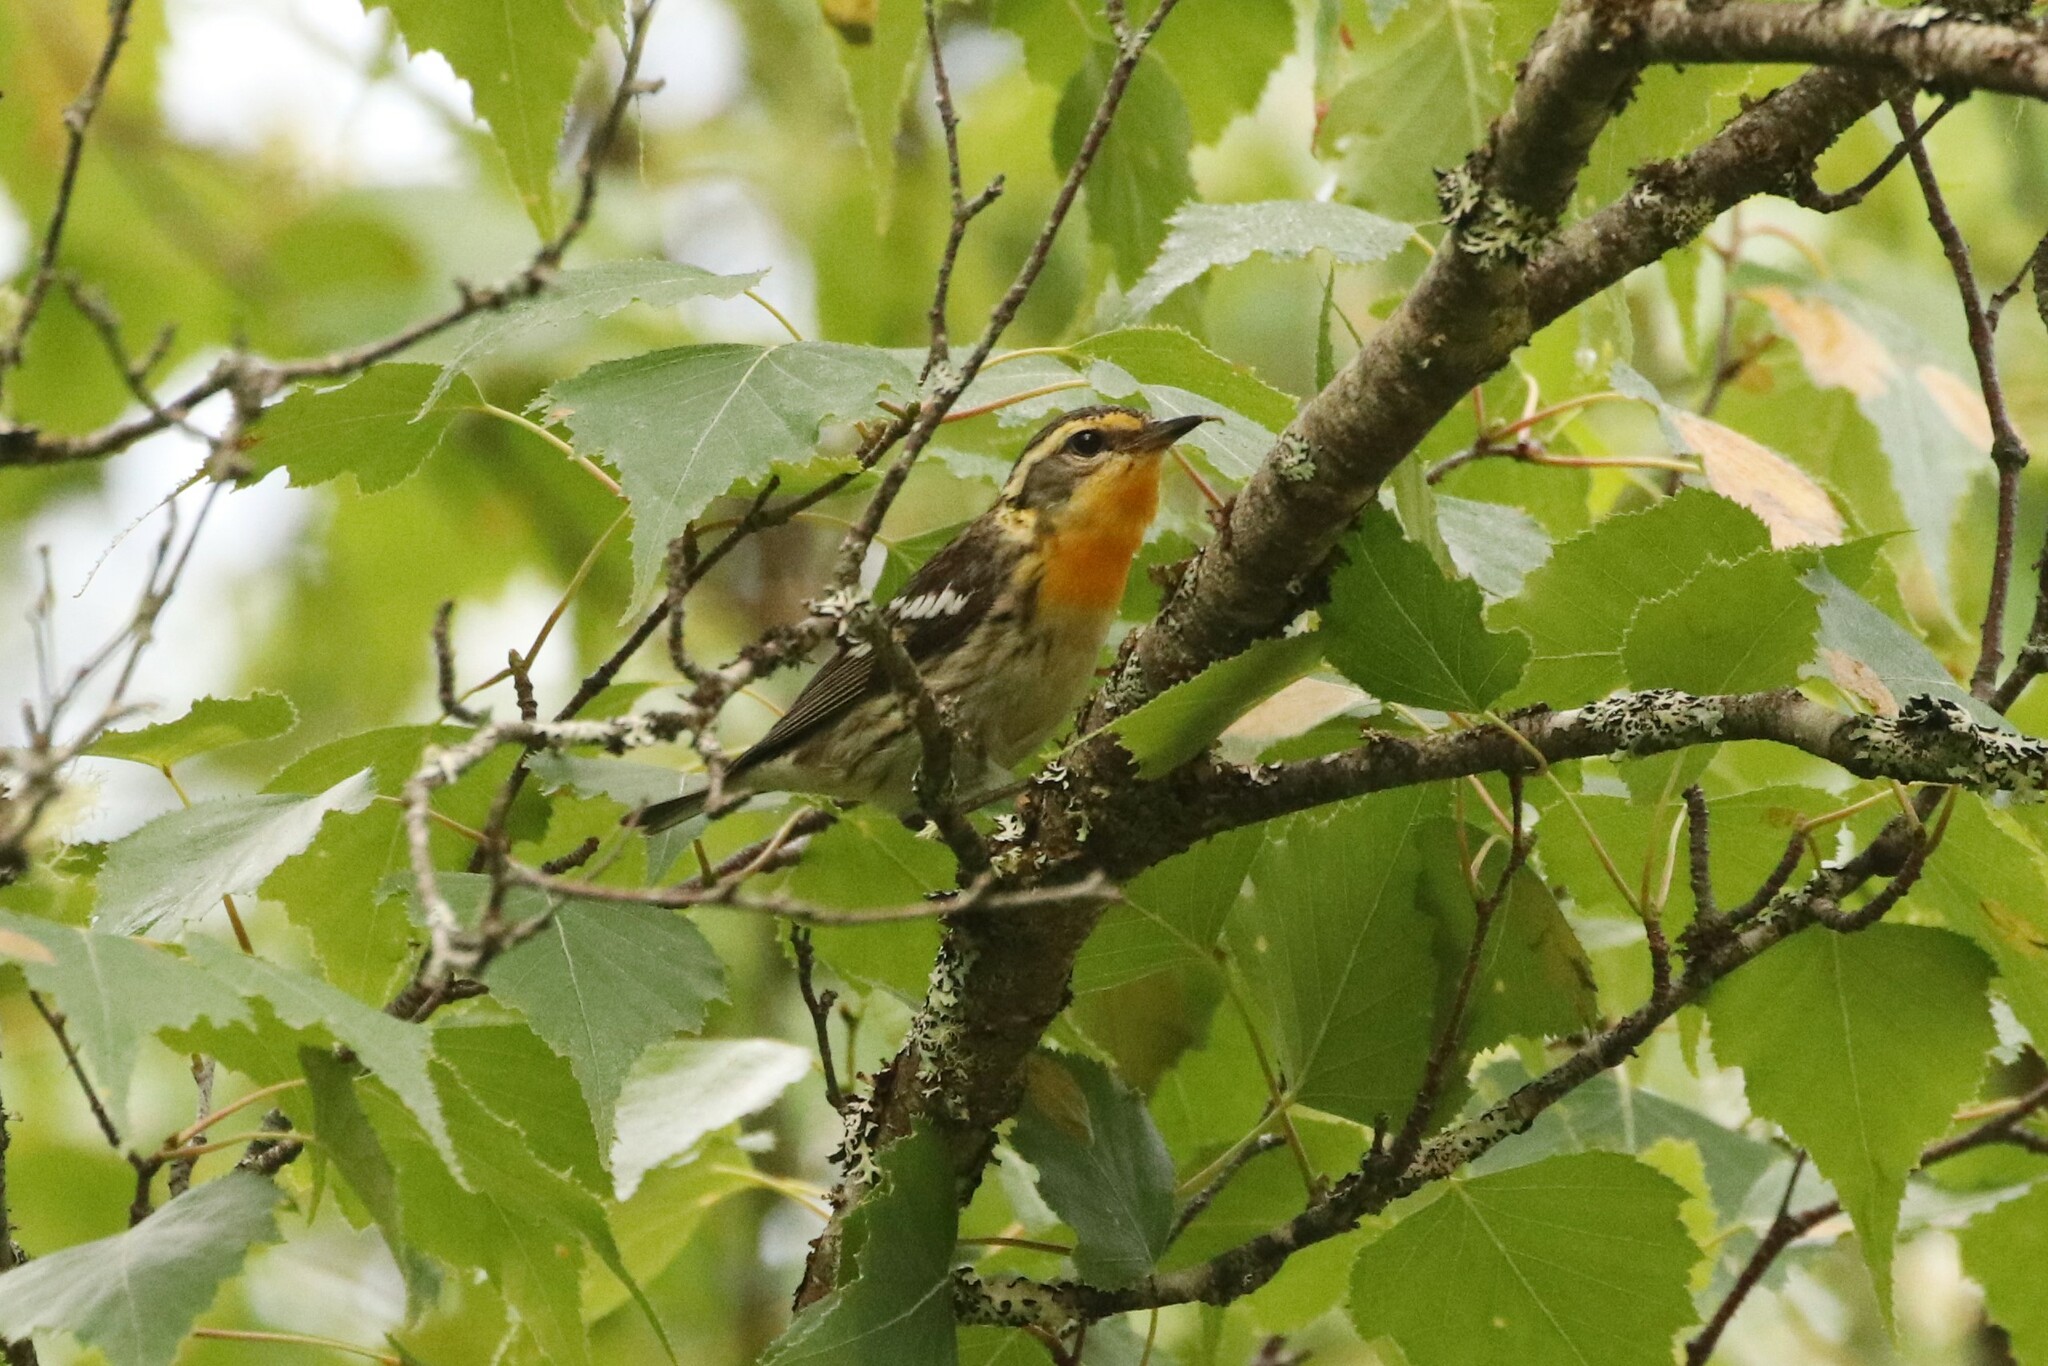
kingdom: Animalia
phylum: Chordata
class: Aves
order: Passeriformes
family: Parulidae
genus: Setophaga
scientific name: Setophaga fusca
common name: Blackburnian warbler
